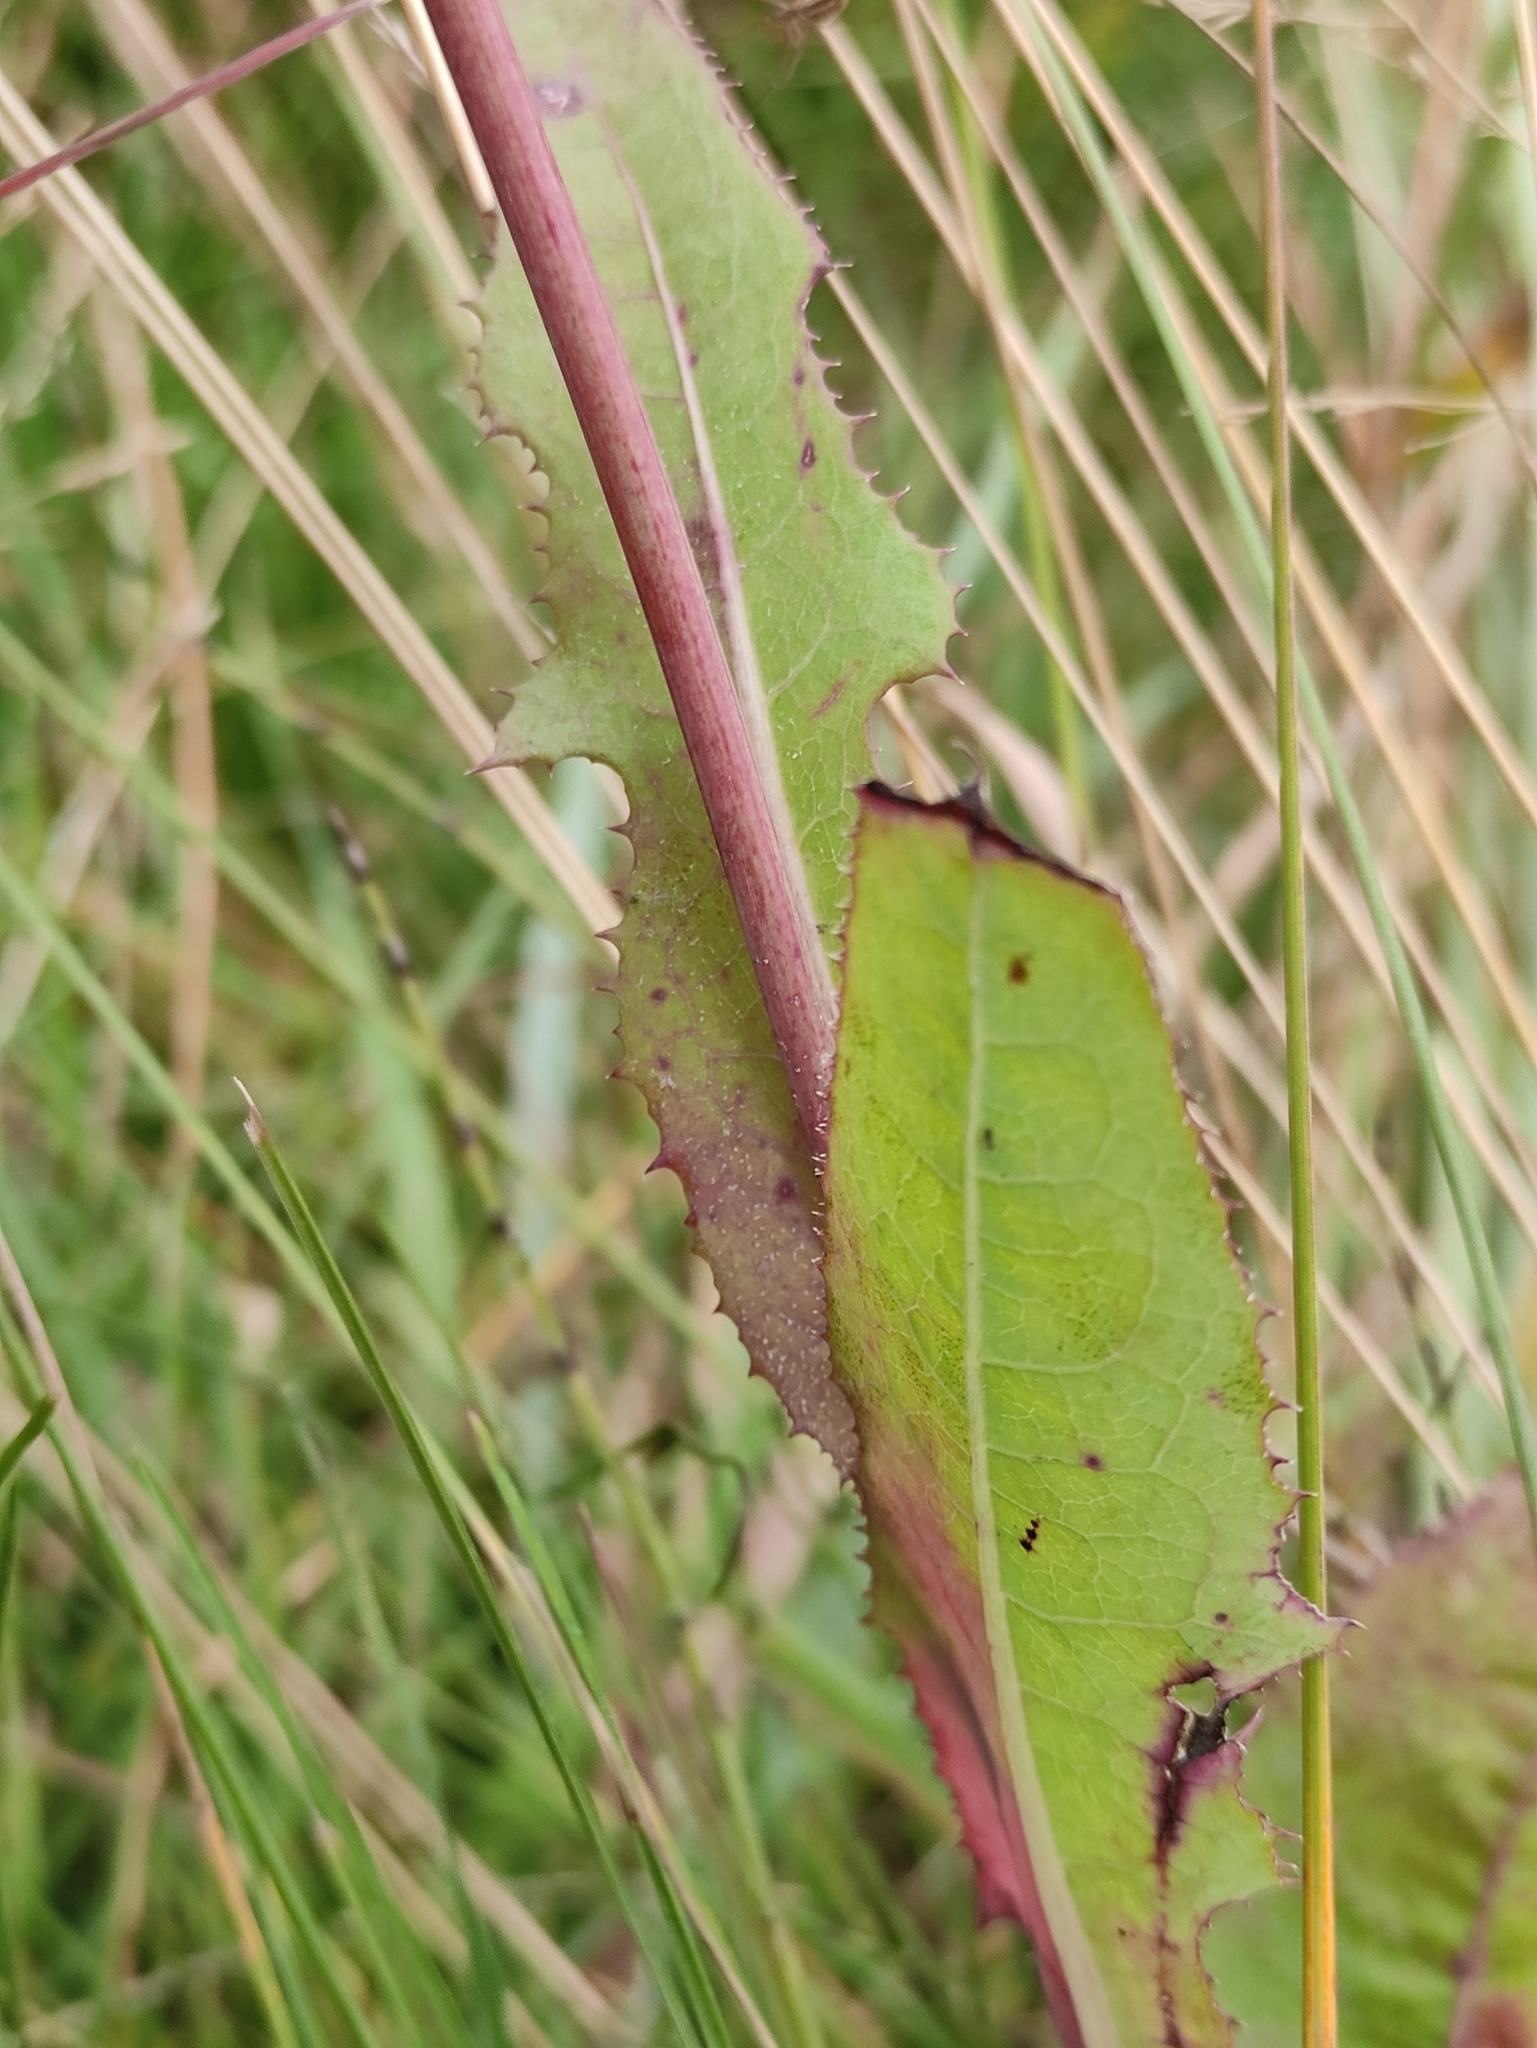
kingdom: Plantae
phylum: Tracheophyta
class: Magnoliopsida
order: Asterales
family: Asteraceae
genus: Sonchus
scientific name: Sonchus arvensis
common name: Perennial sow-thistle
